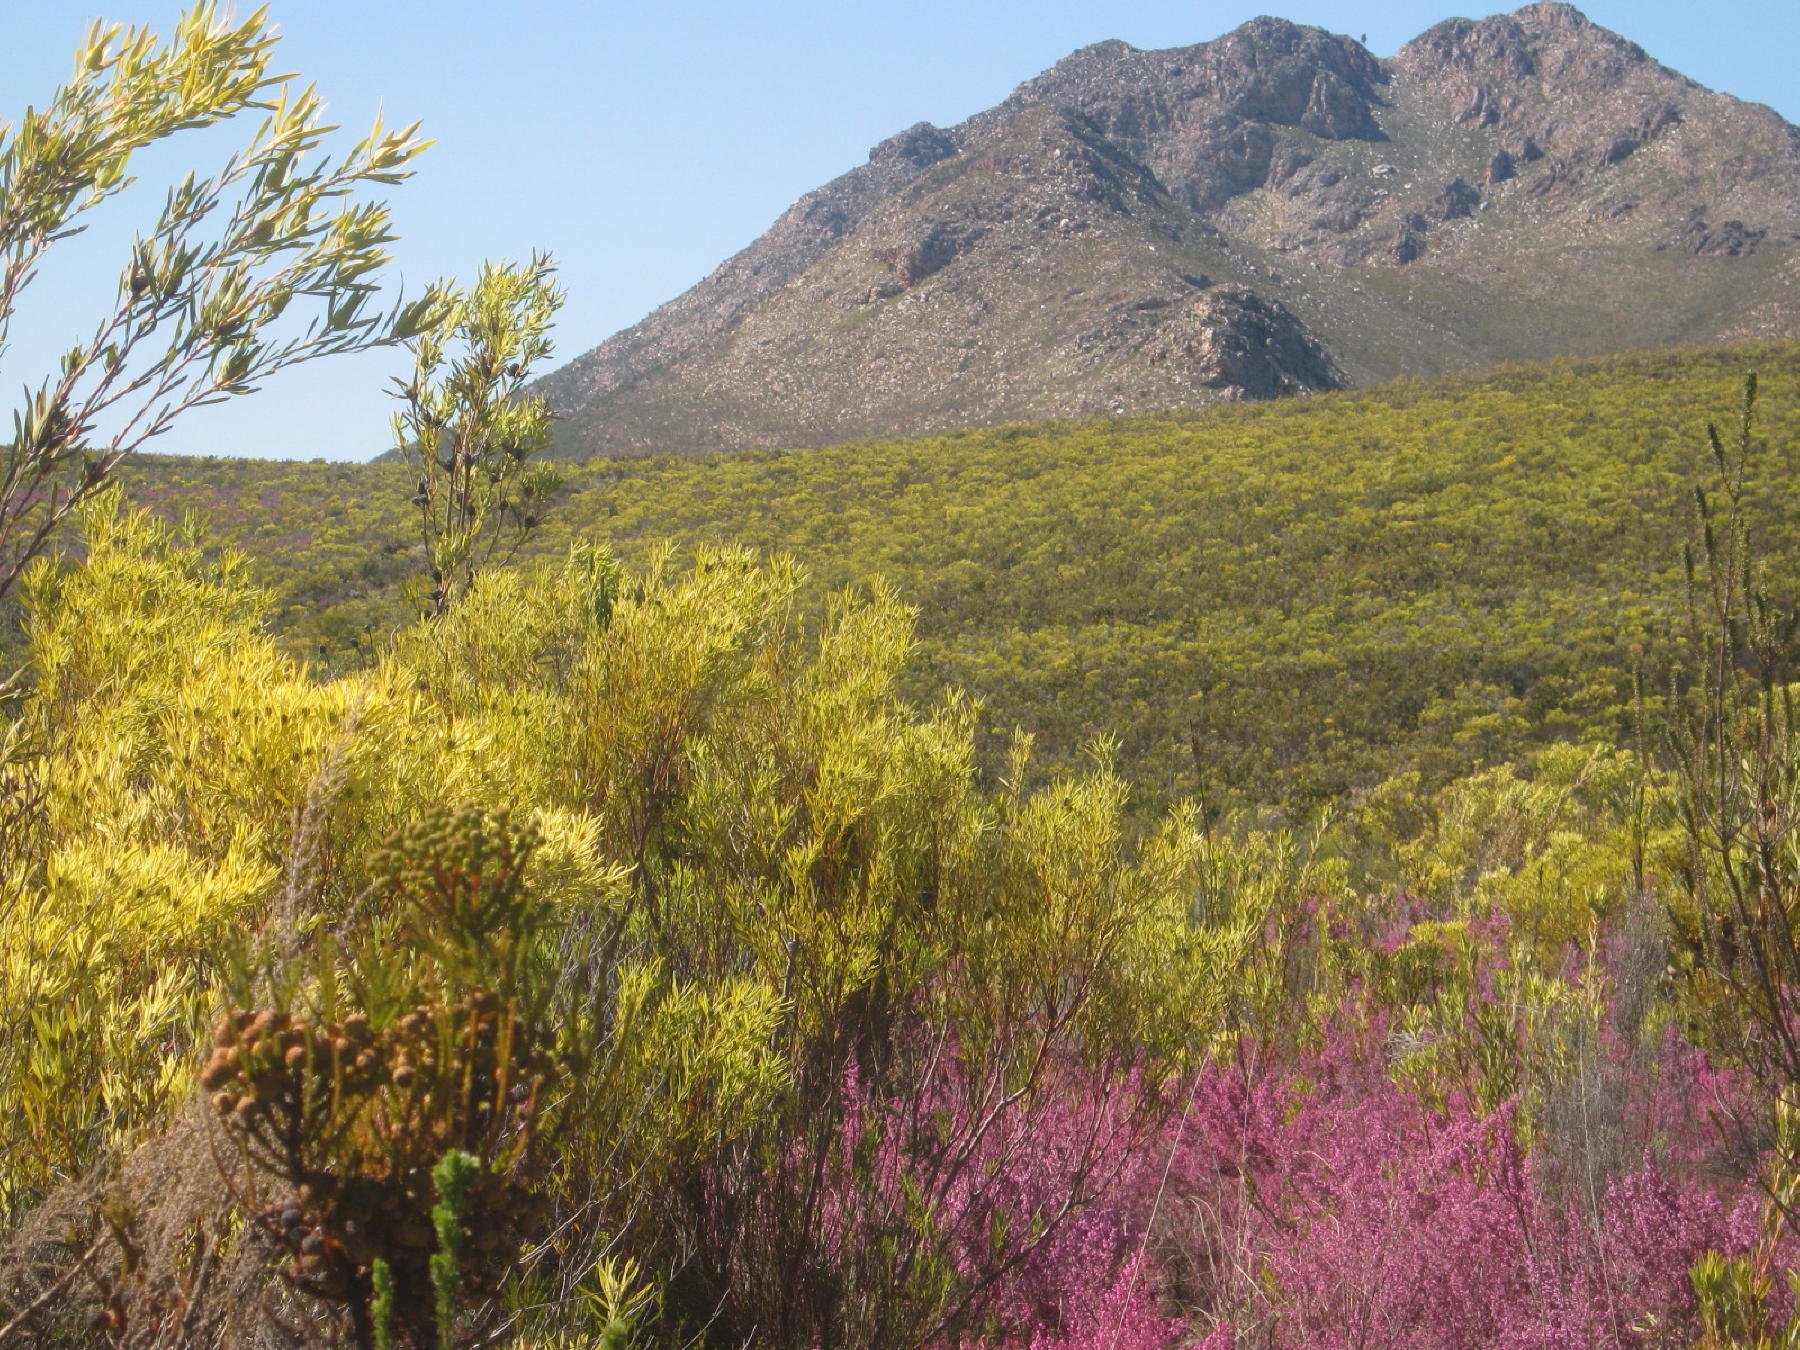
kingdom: Plantae
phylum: Tracheophyta
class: Magnoliopsida
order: Proteales
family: Proteaceae
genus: Leucadendron
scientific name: Leucadendron salignum
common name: Common sunshine conebush
